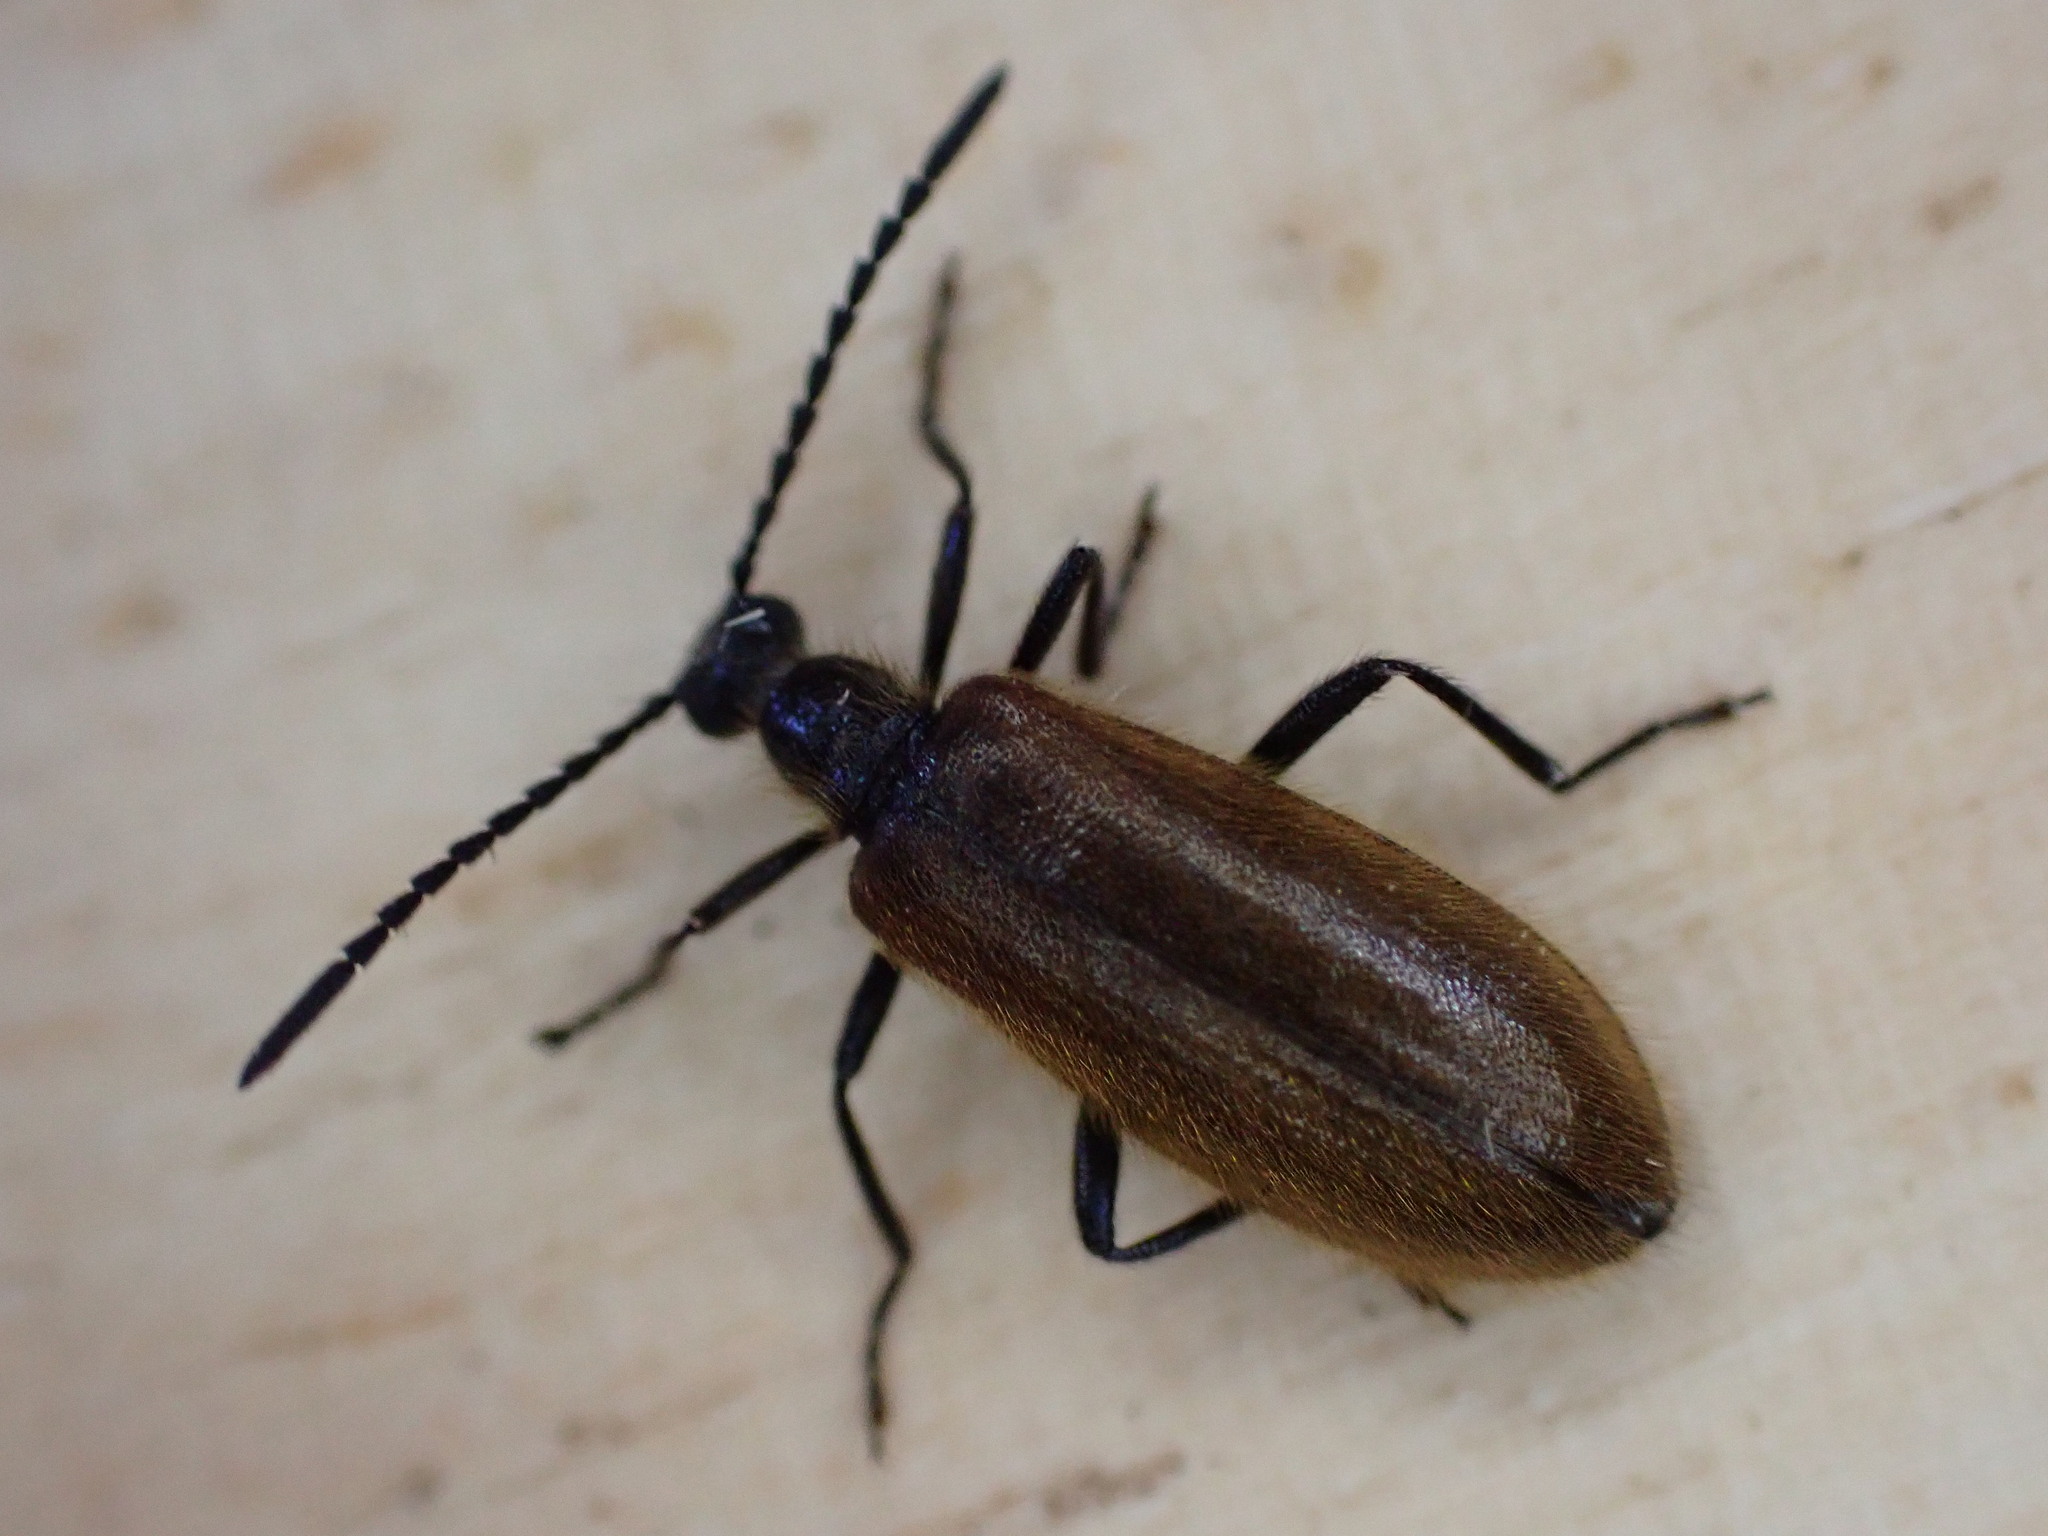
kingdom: Animalia
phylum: Arthropoda
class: Insecta
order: Coleoptera
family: Tenebrionidae
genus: Lagria
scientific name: Lagria hirta
